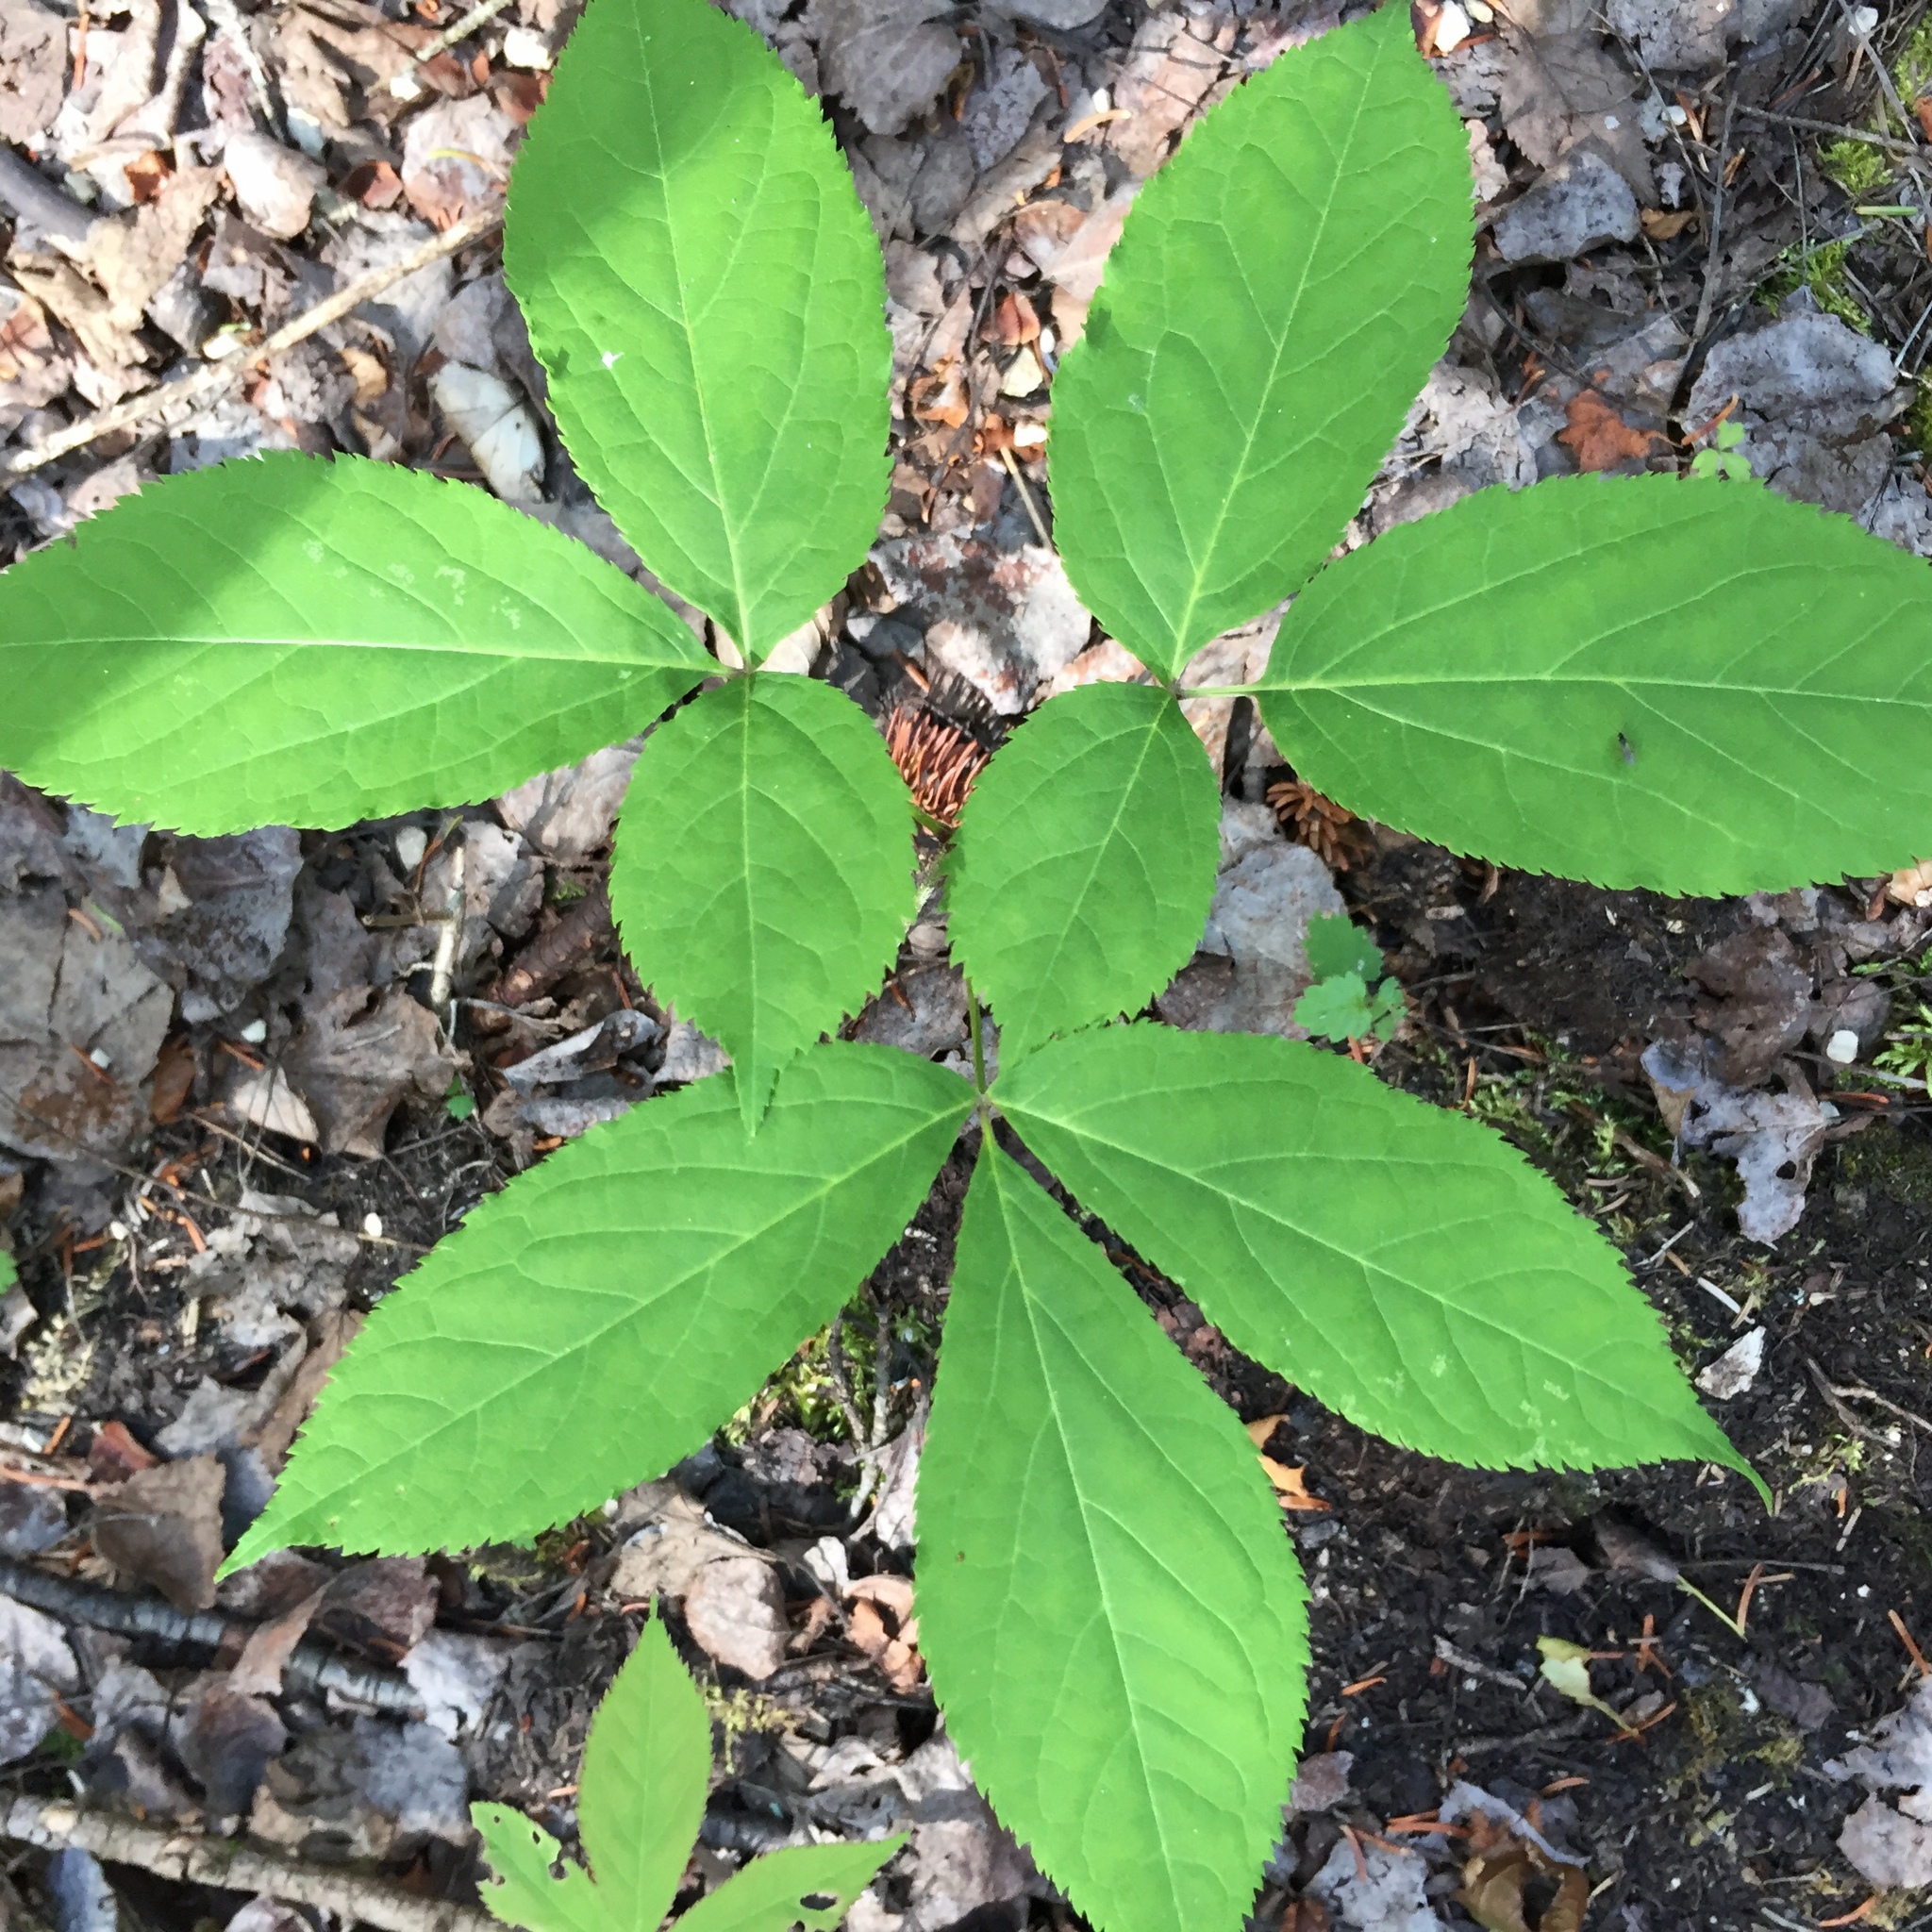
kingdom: Plantae
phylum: Tracheophyta
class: Magnoliopsida
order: Apiales
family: Araliaceae
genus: Aralia
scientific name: Aralia nudicaulis
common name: Wild sarsaparilla
